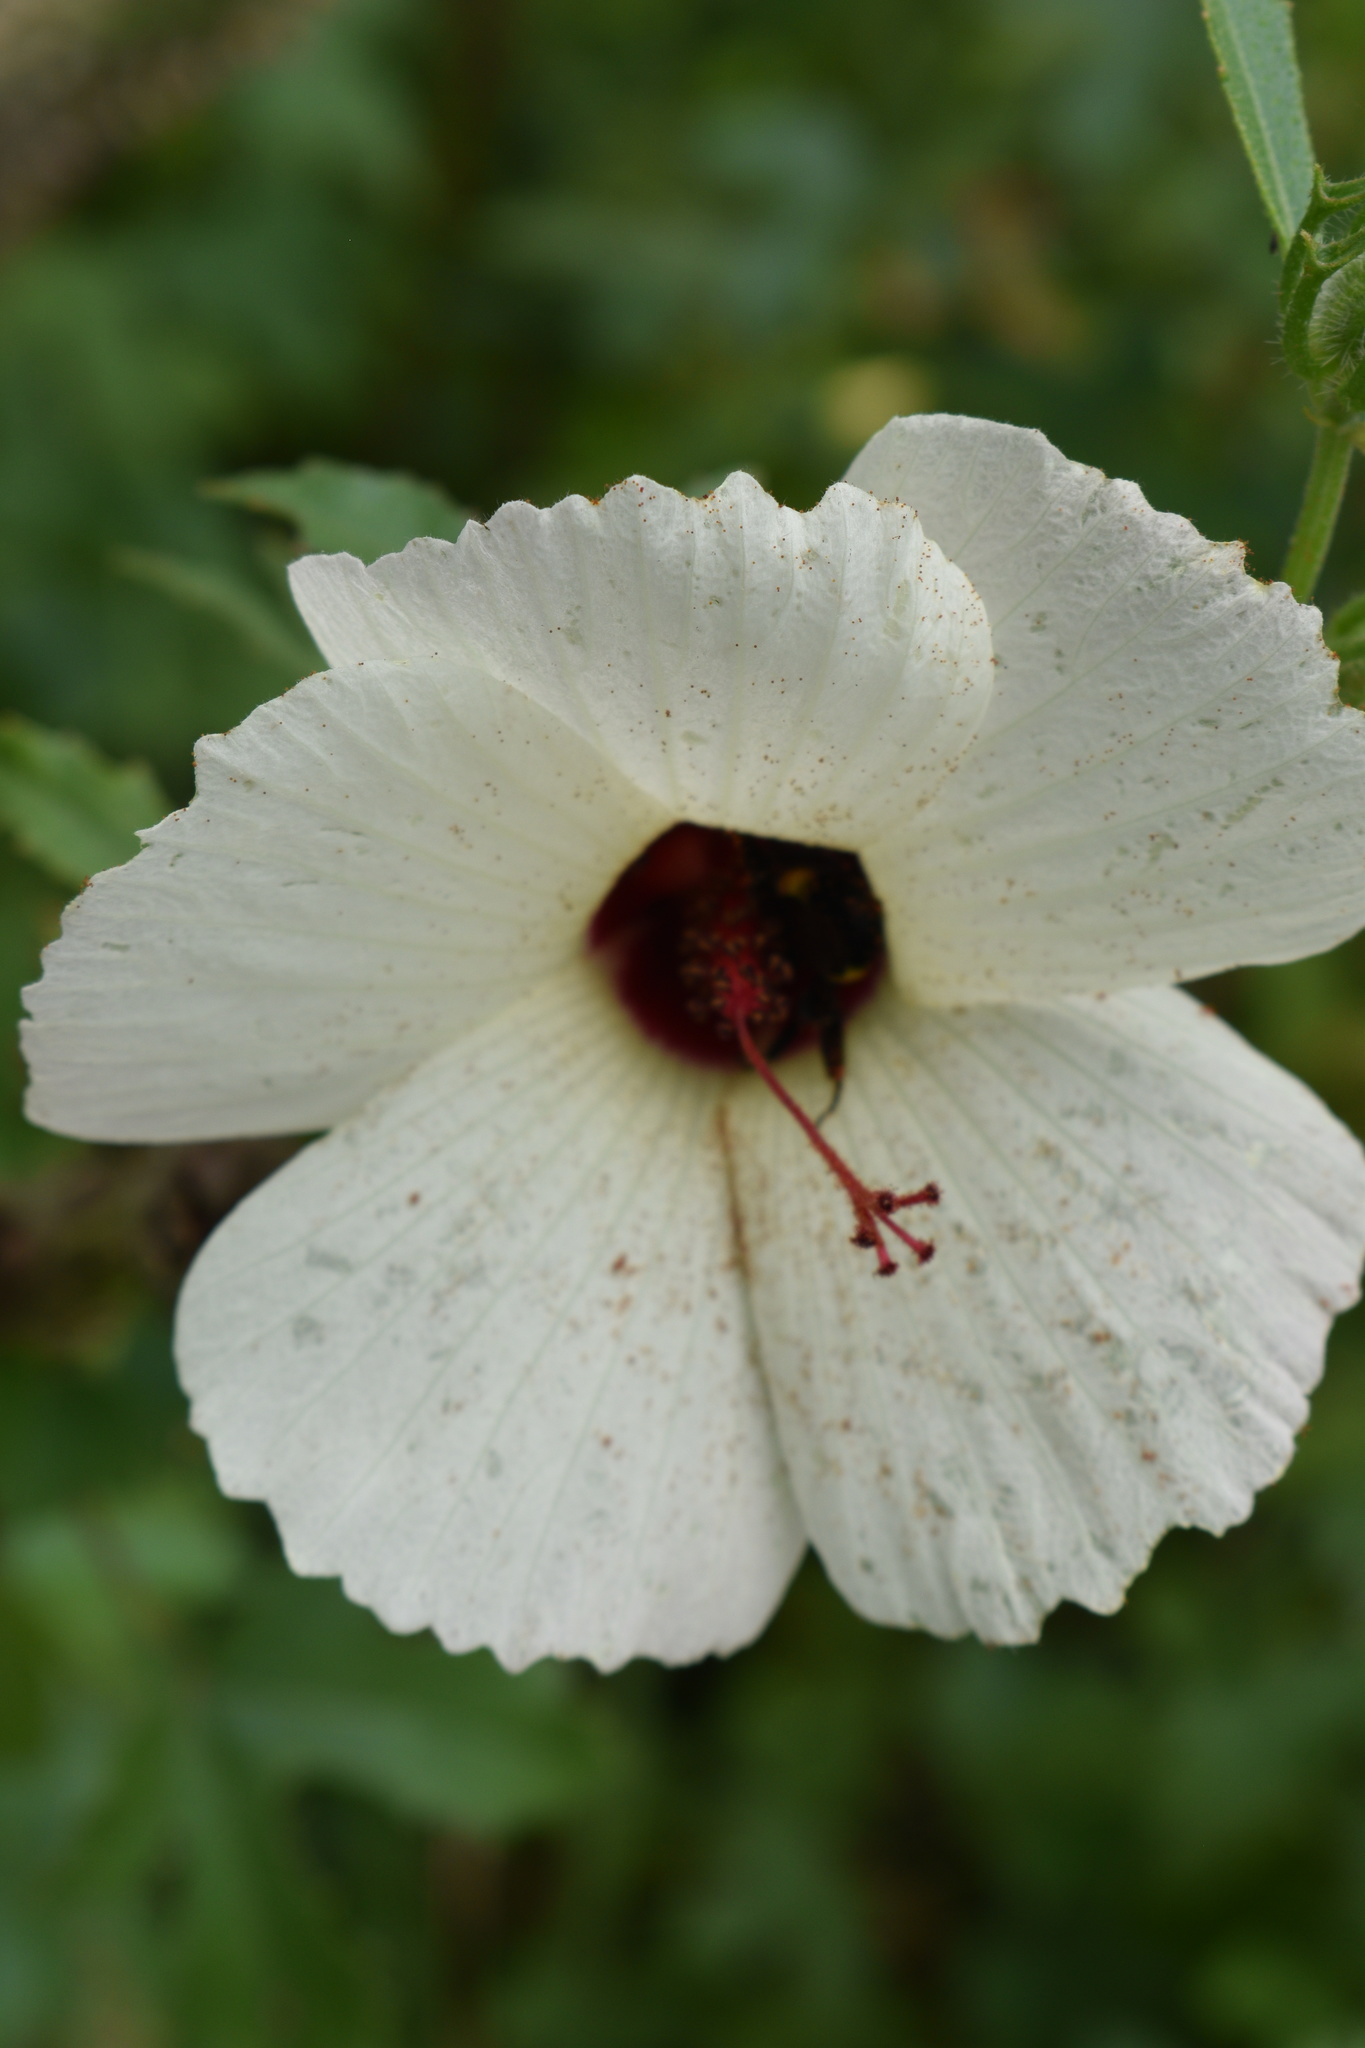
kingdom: Plantae
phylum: Tracheophyta
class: Magnoliopsida
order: Malvales
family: Malvaceae
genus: Hibiscus
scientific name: Hibiscus aculeatus
